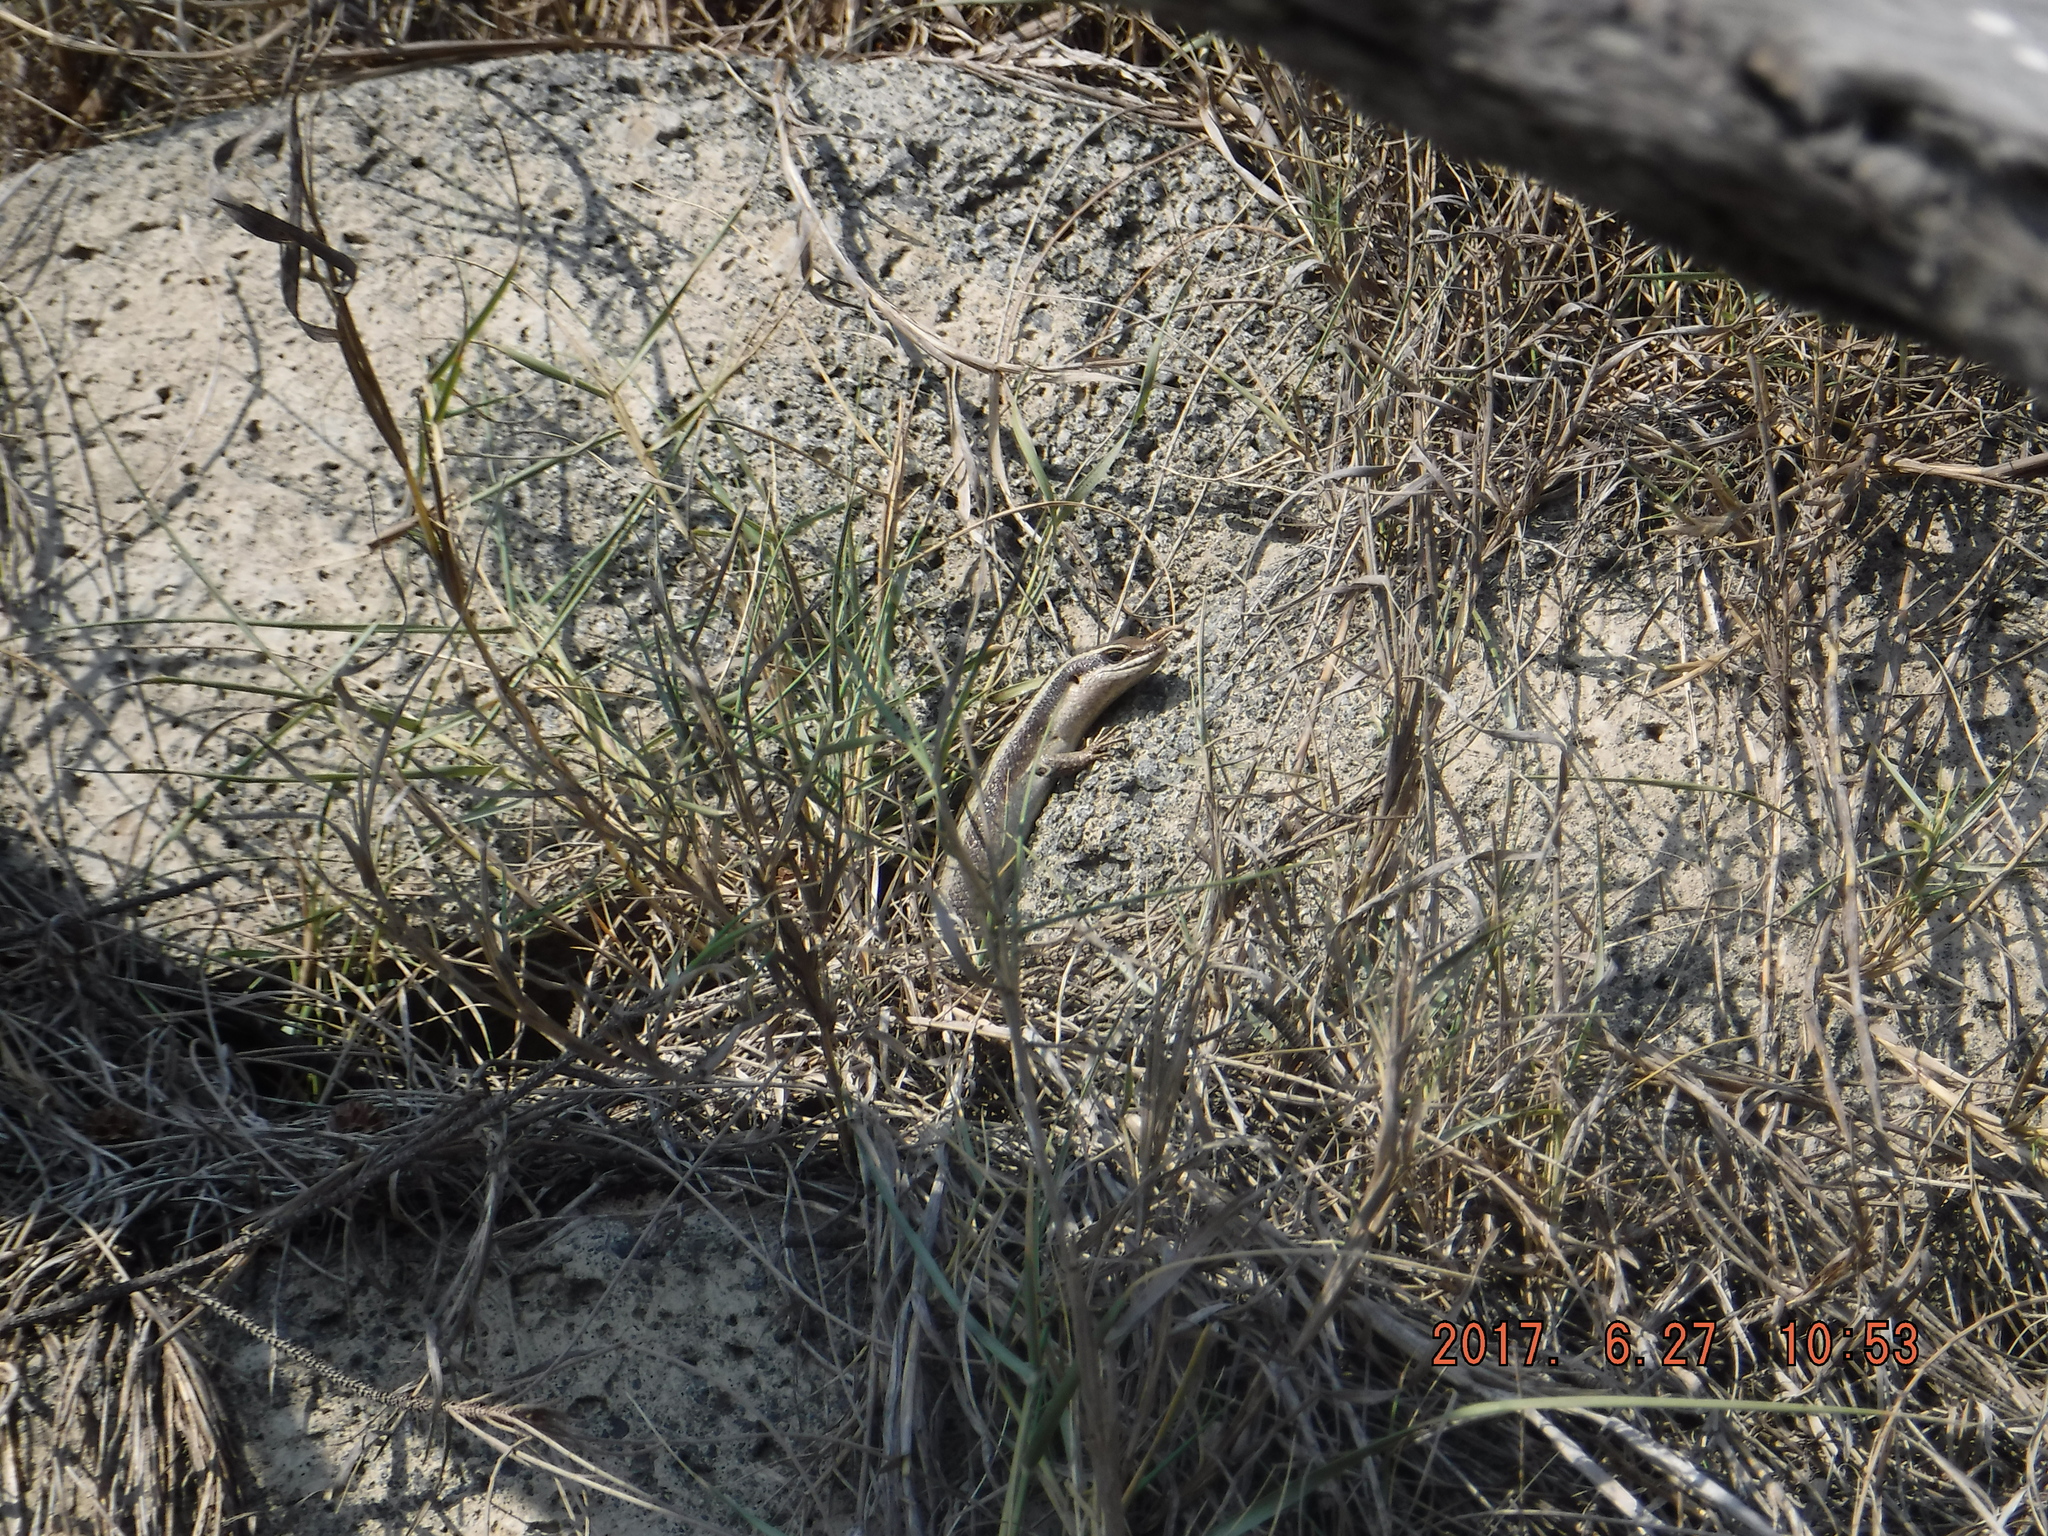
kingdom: Animalia
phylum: Chordata
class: Squamata
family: Scincidae
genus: Trachylepis
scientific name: Trachylepis striata
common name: African striped mabuya
